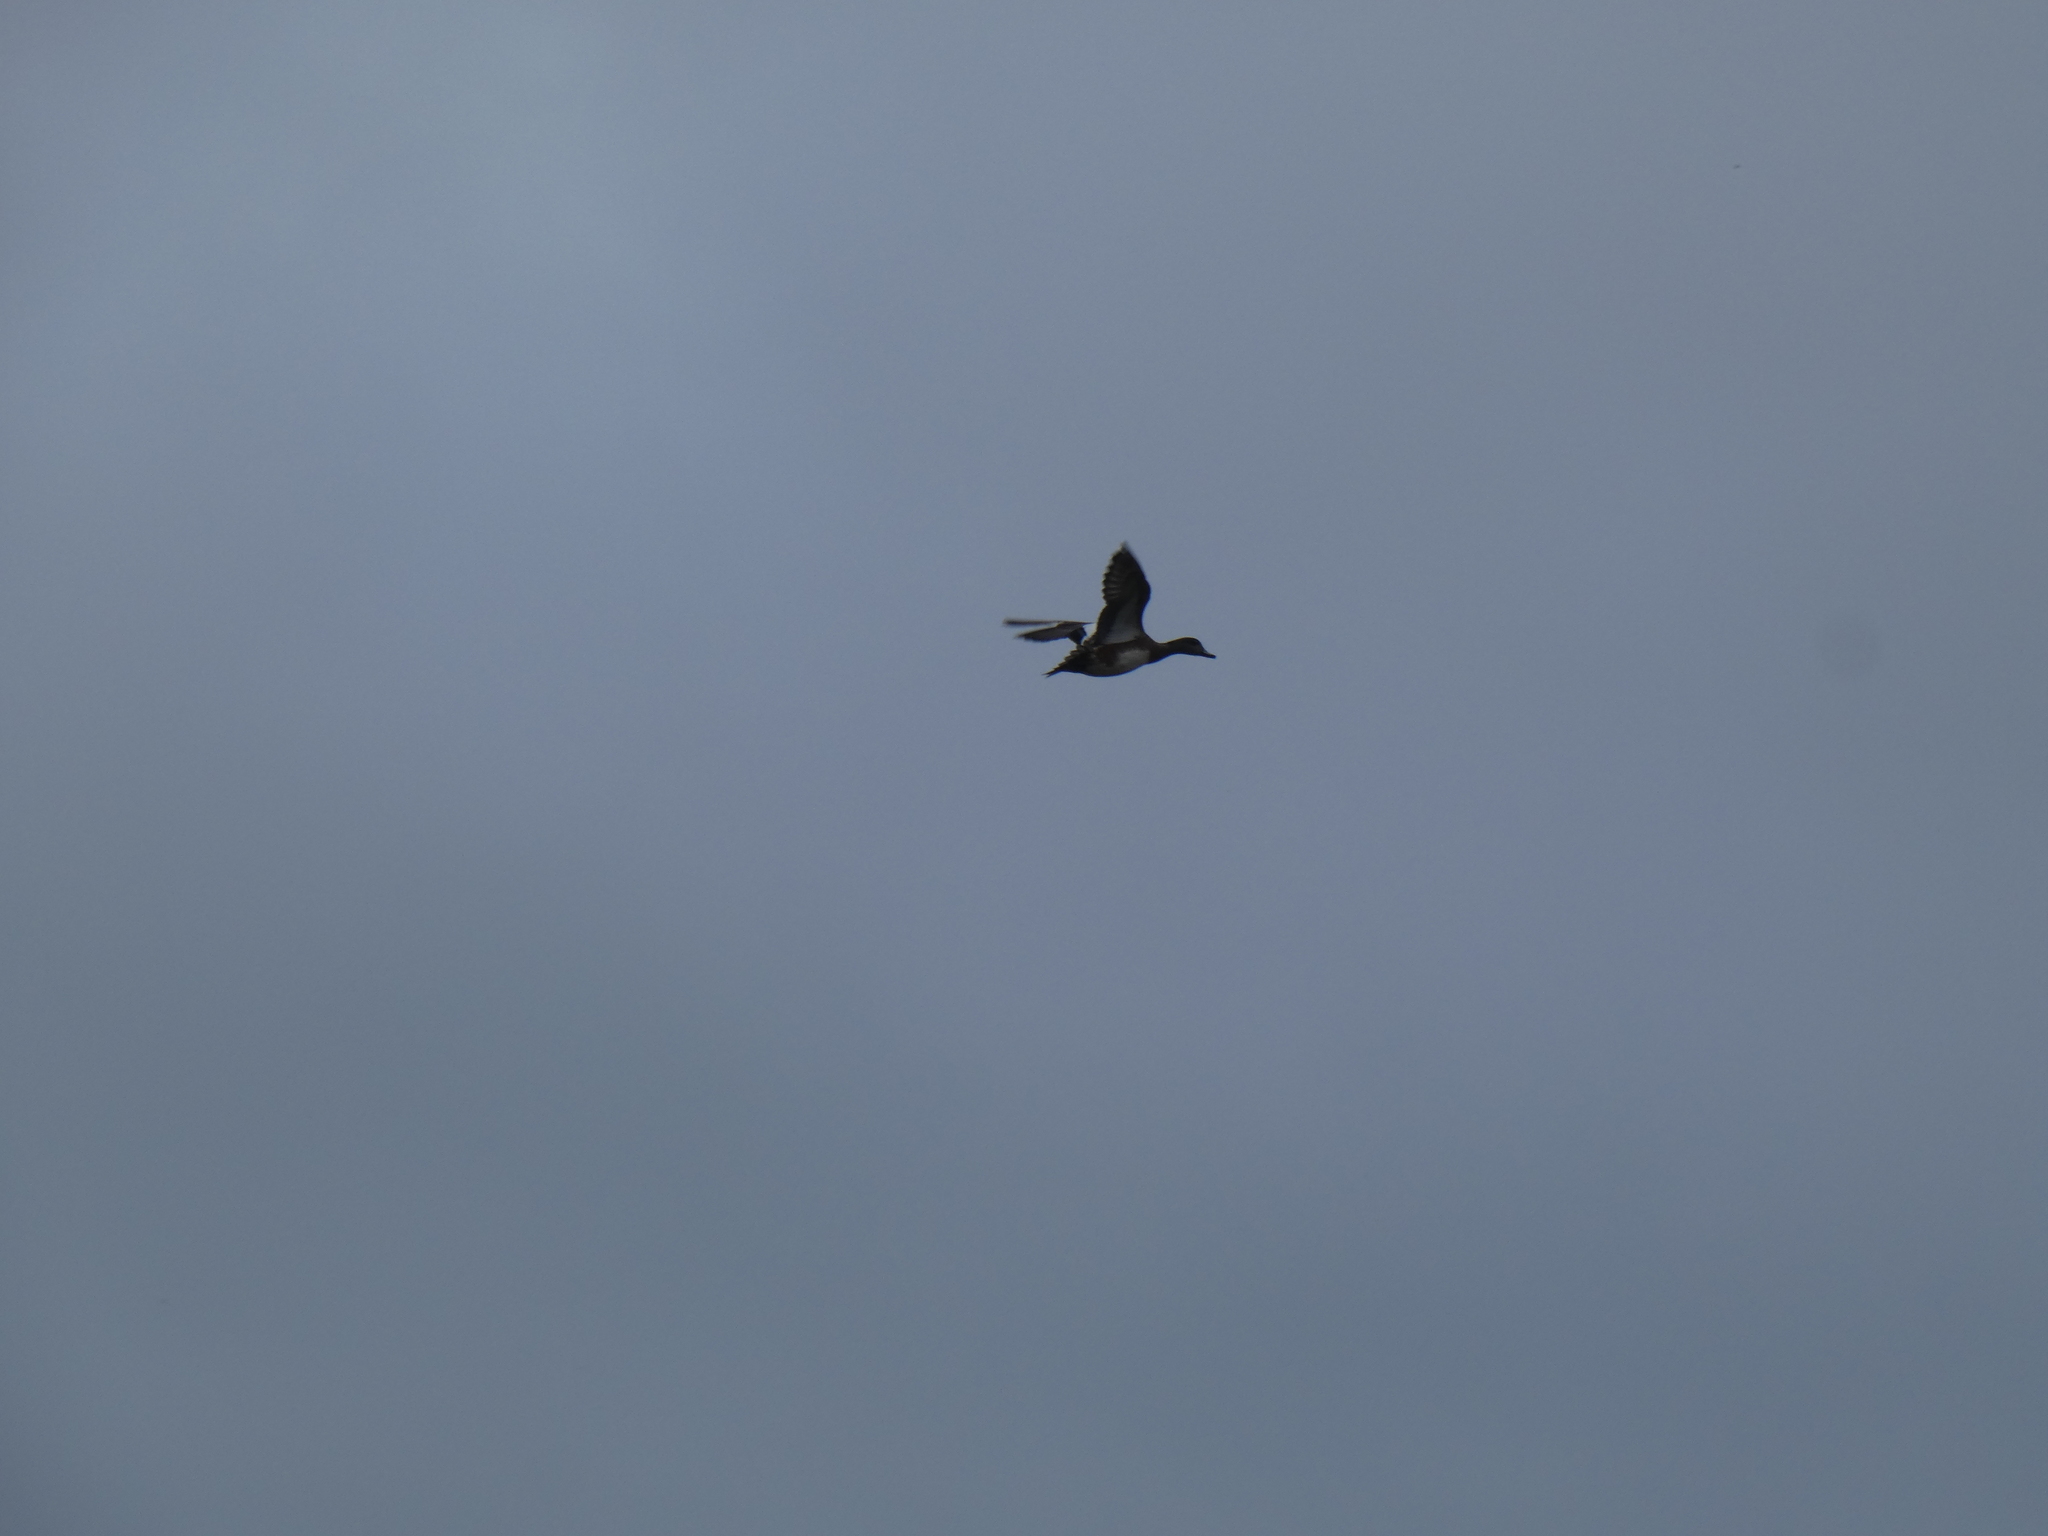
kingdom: Animalia
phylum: Chordata
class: Aves
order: Anseriformes
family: Anatidae
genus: Mareca
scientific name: Mareca americana
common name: American wigeon
